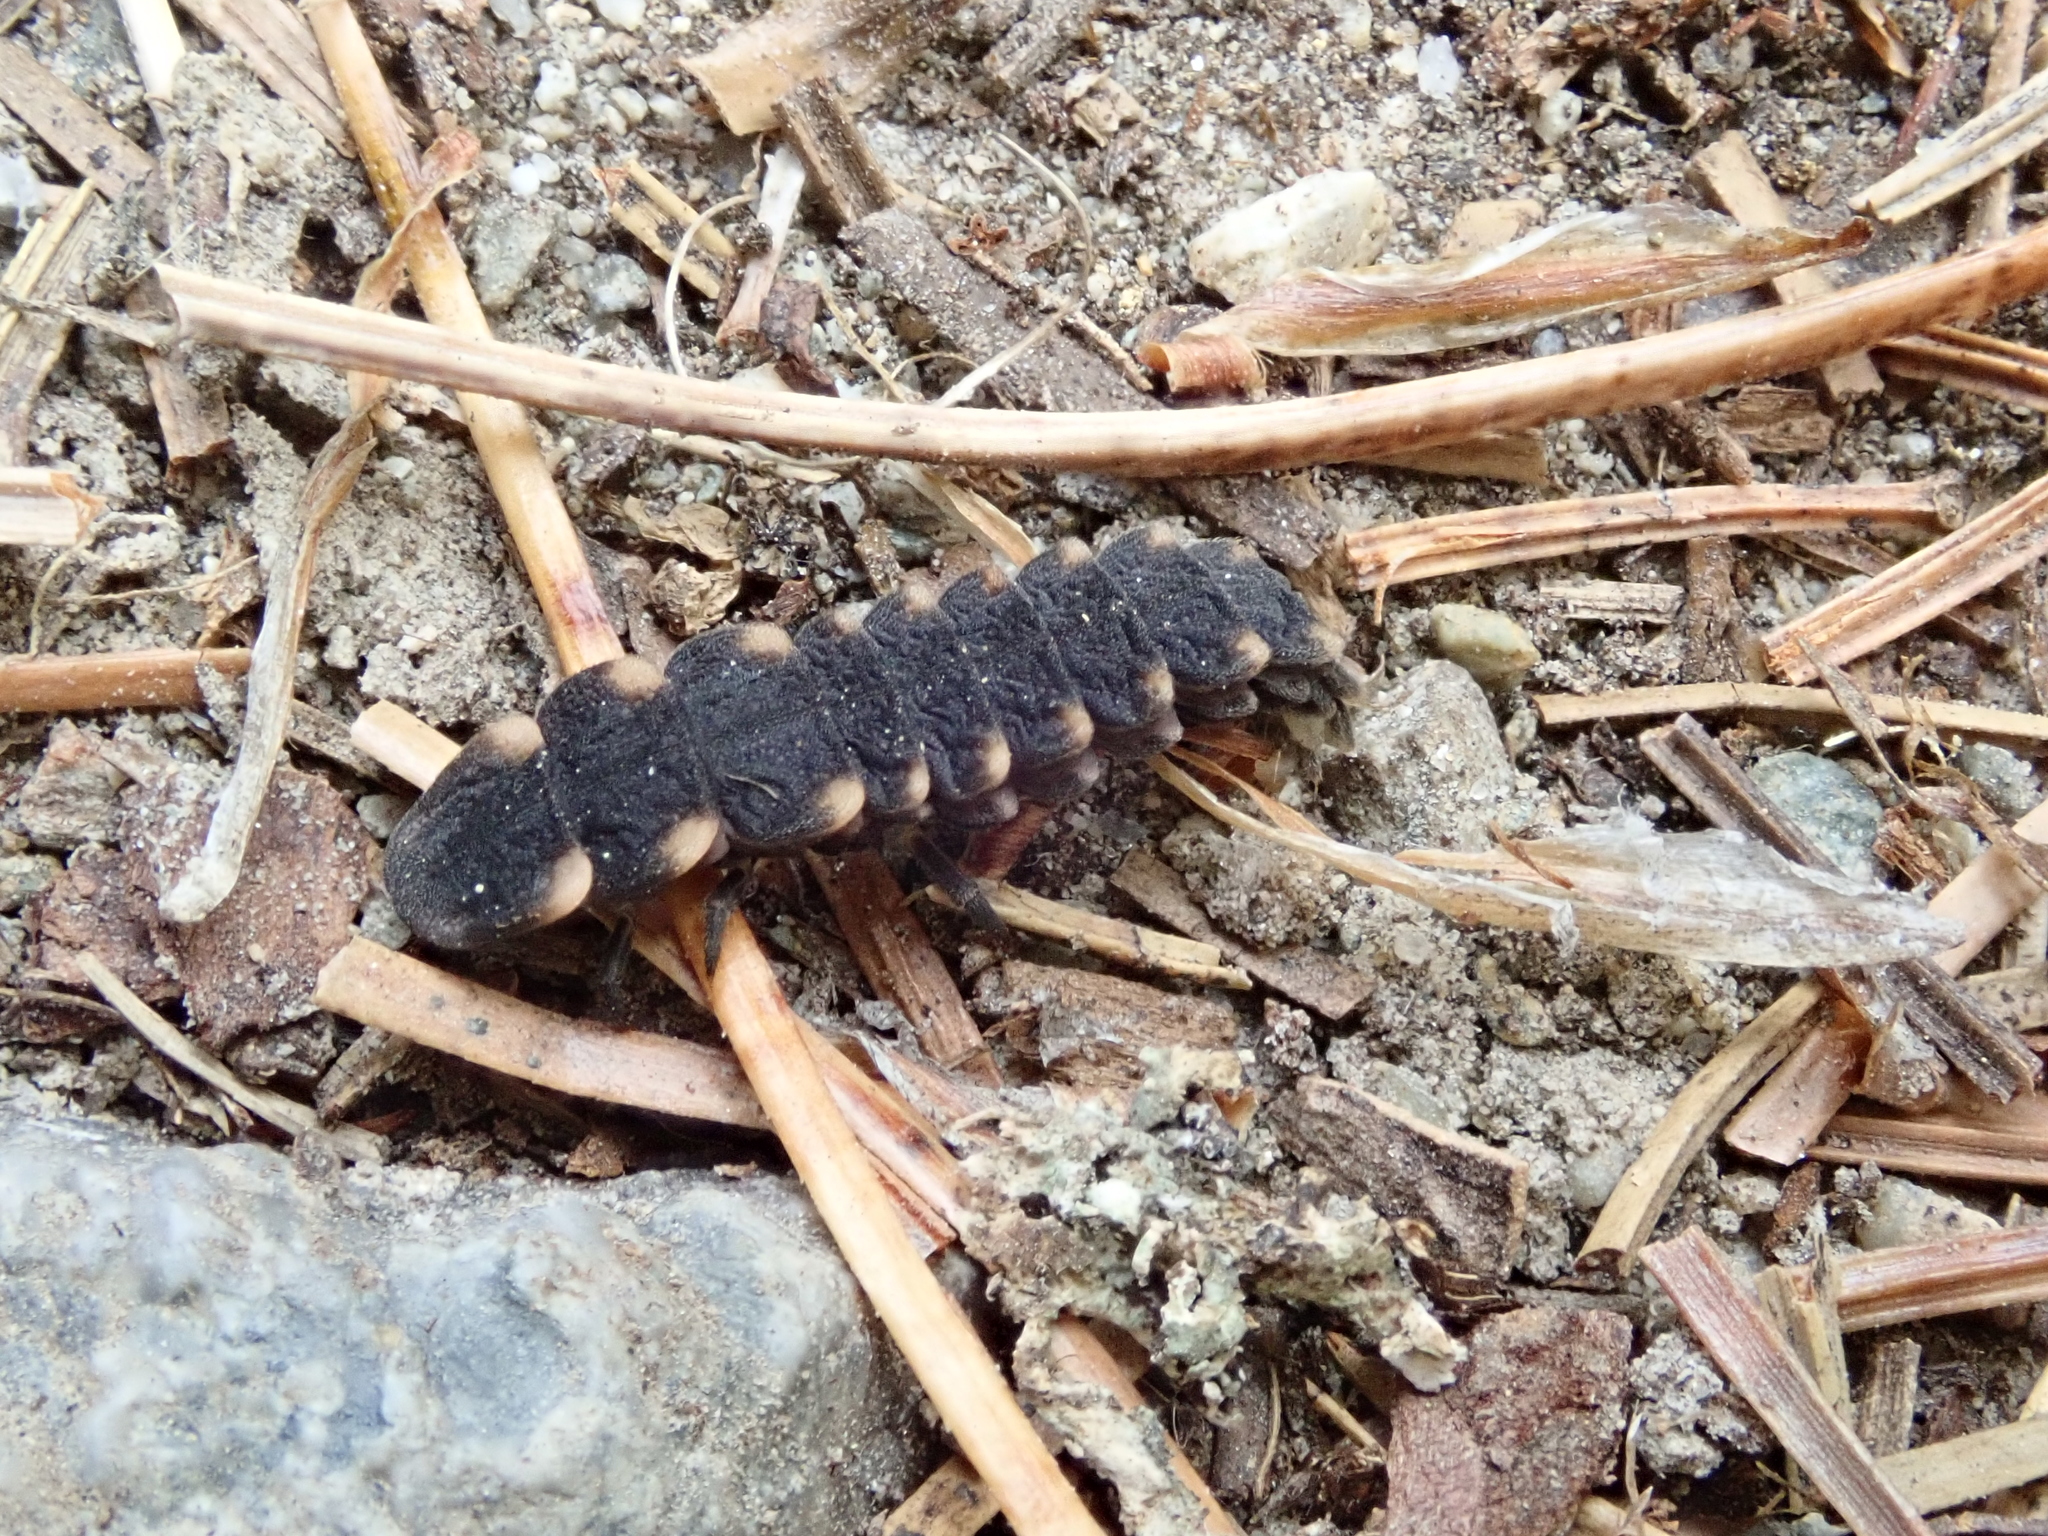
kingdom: Animalia
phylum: Arthropoda
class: Insecta
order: Coleoptera
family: Lampyridae
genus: Lampyris
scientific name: Lampyris noctiluca
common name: Glow-worm
